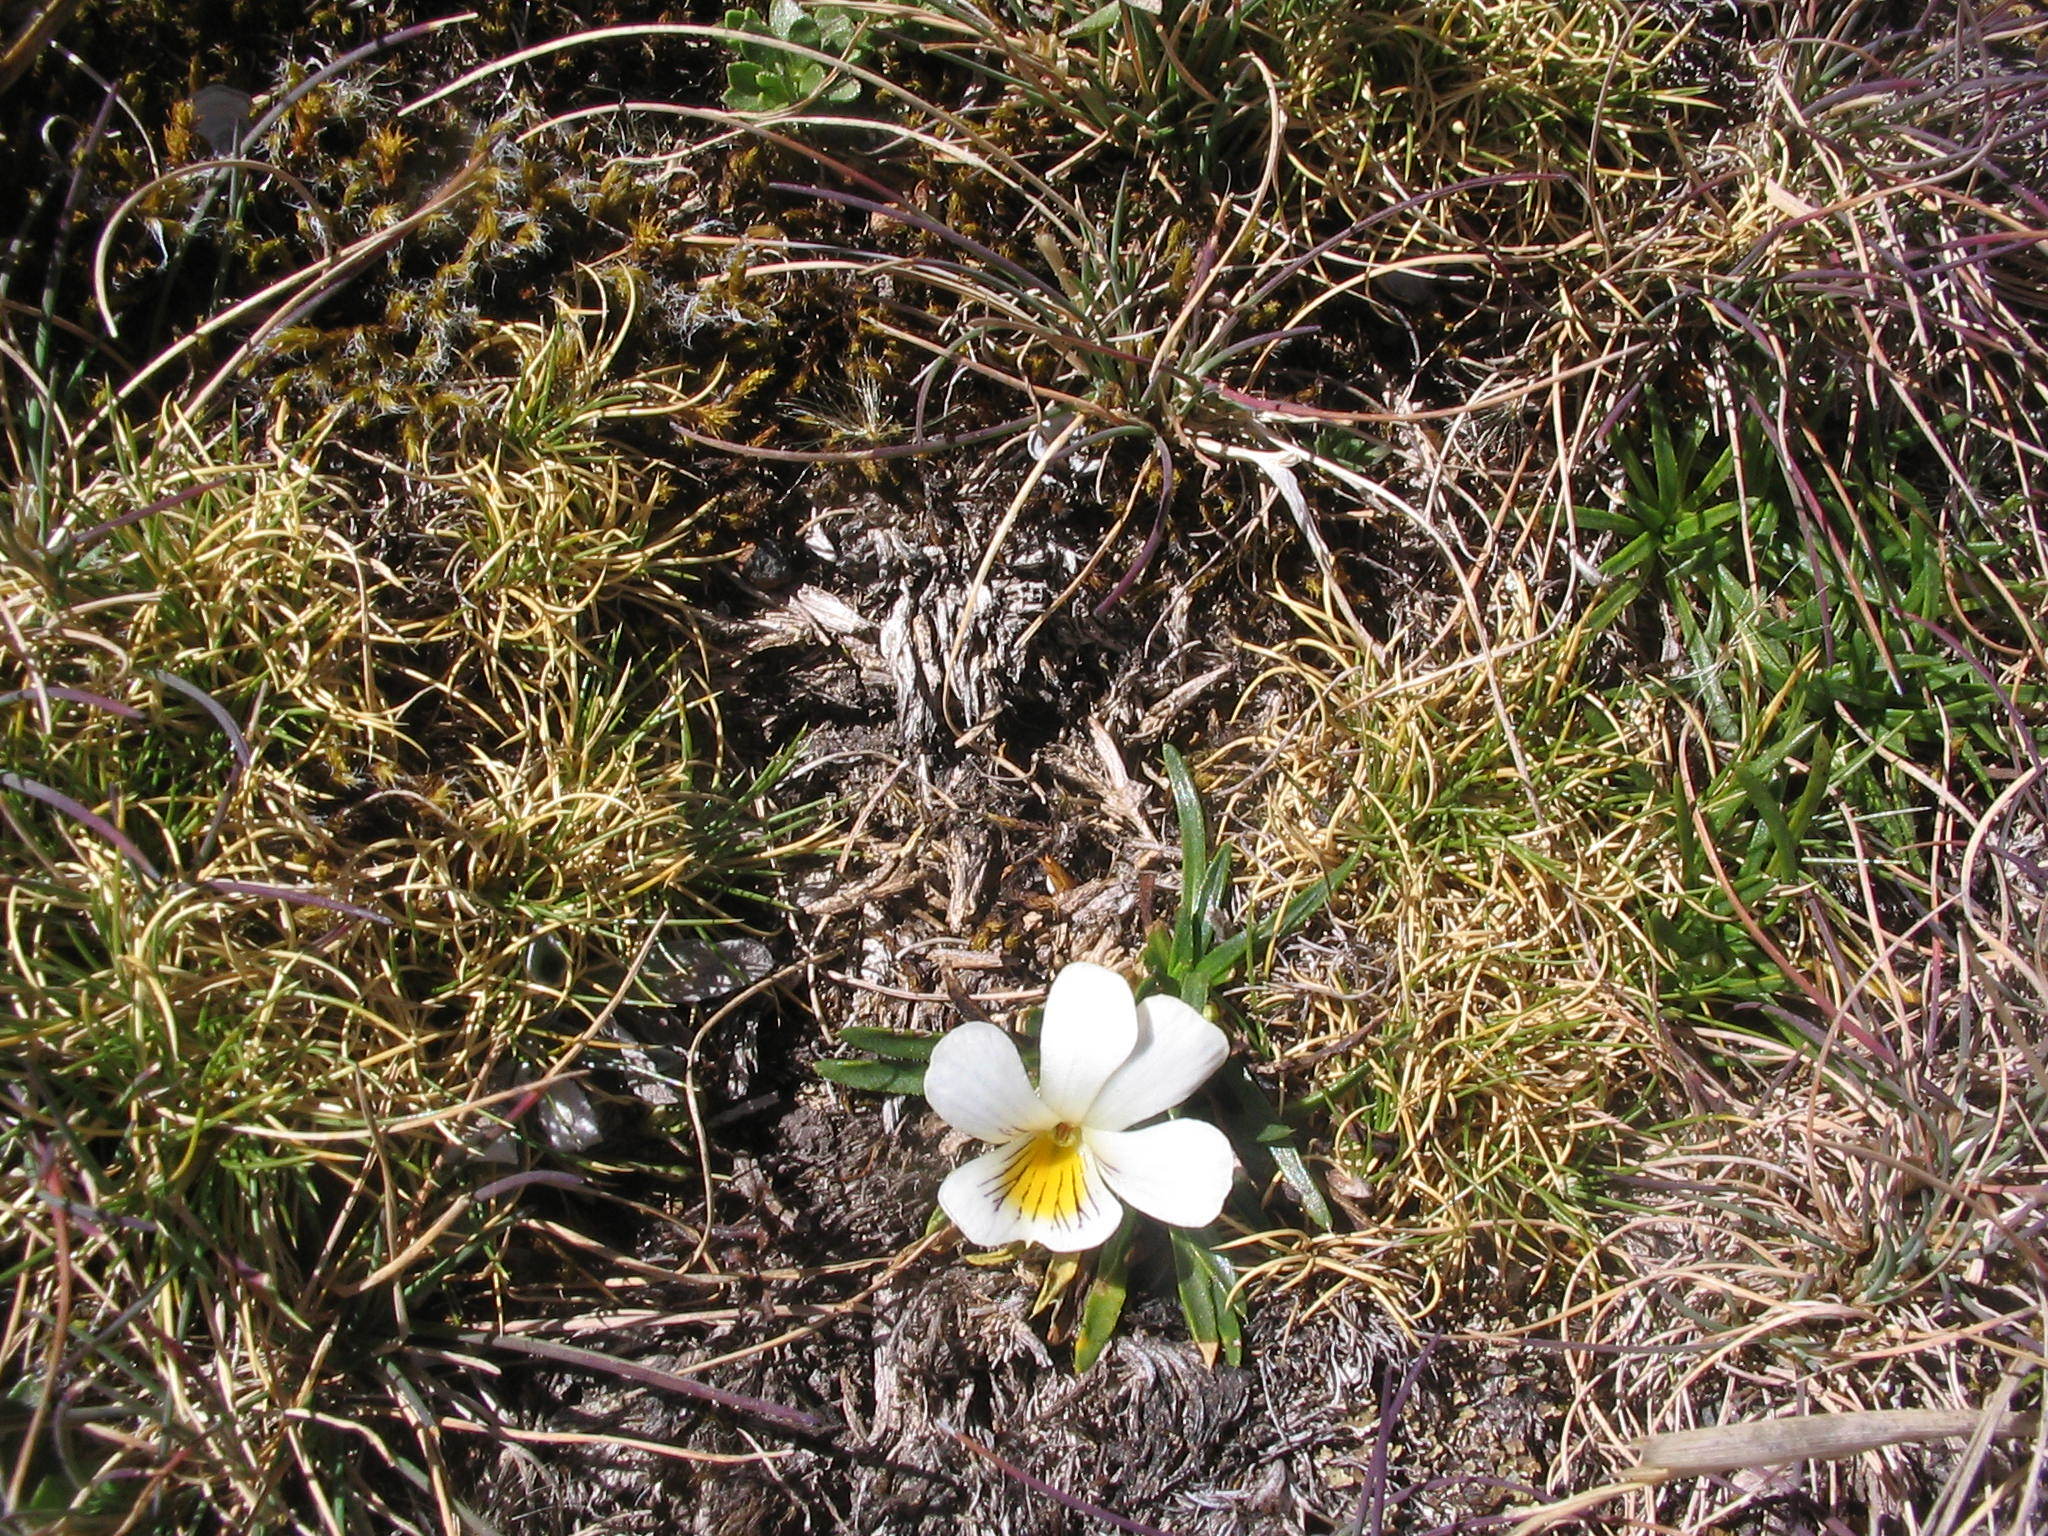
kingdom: Plantae
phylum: Tracheophyta
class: Magnoliopsida
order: Malpighiales
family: Violaceae
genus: Viola
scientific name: Viola pygmaea
